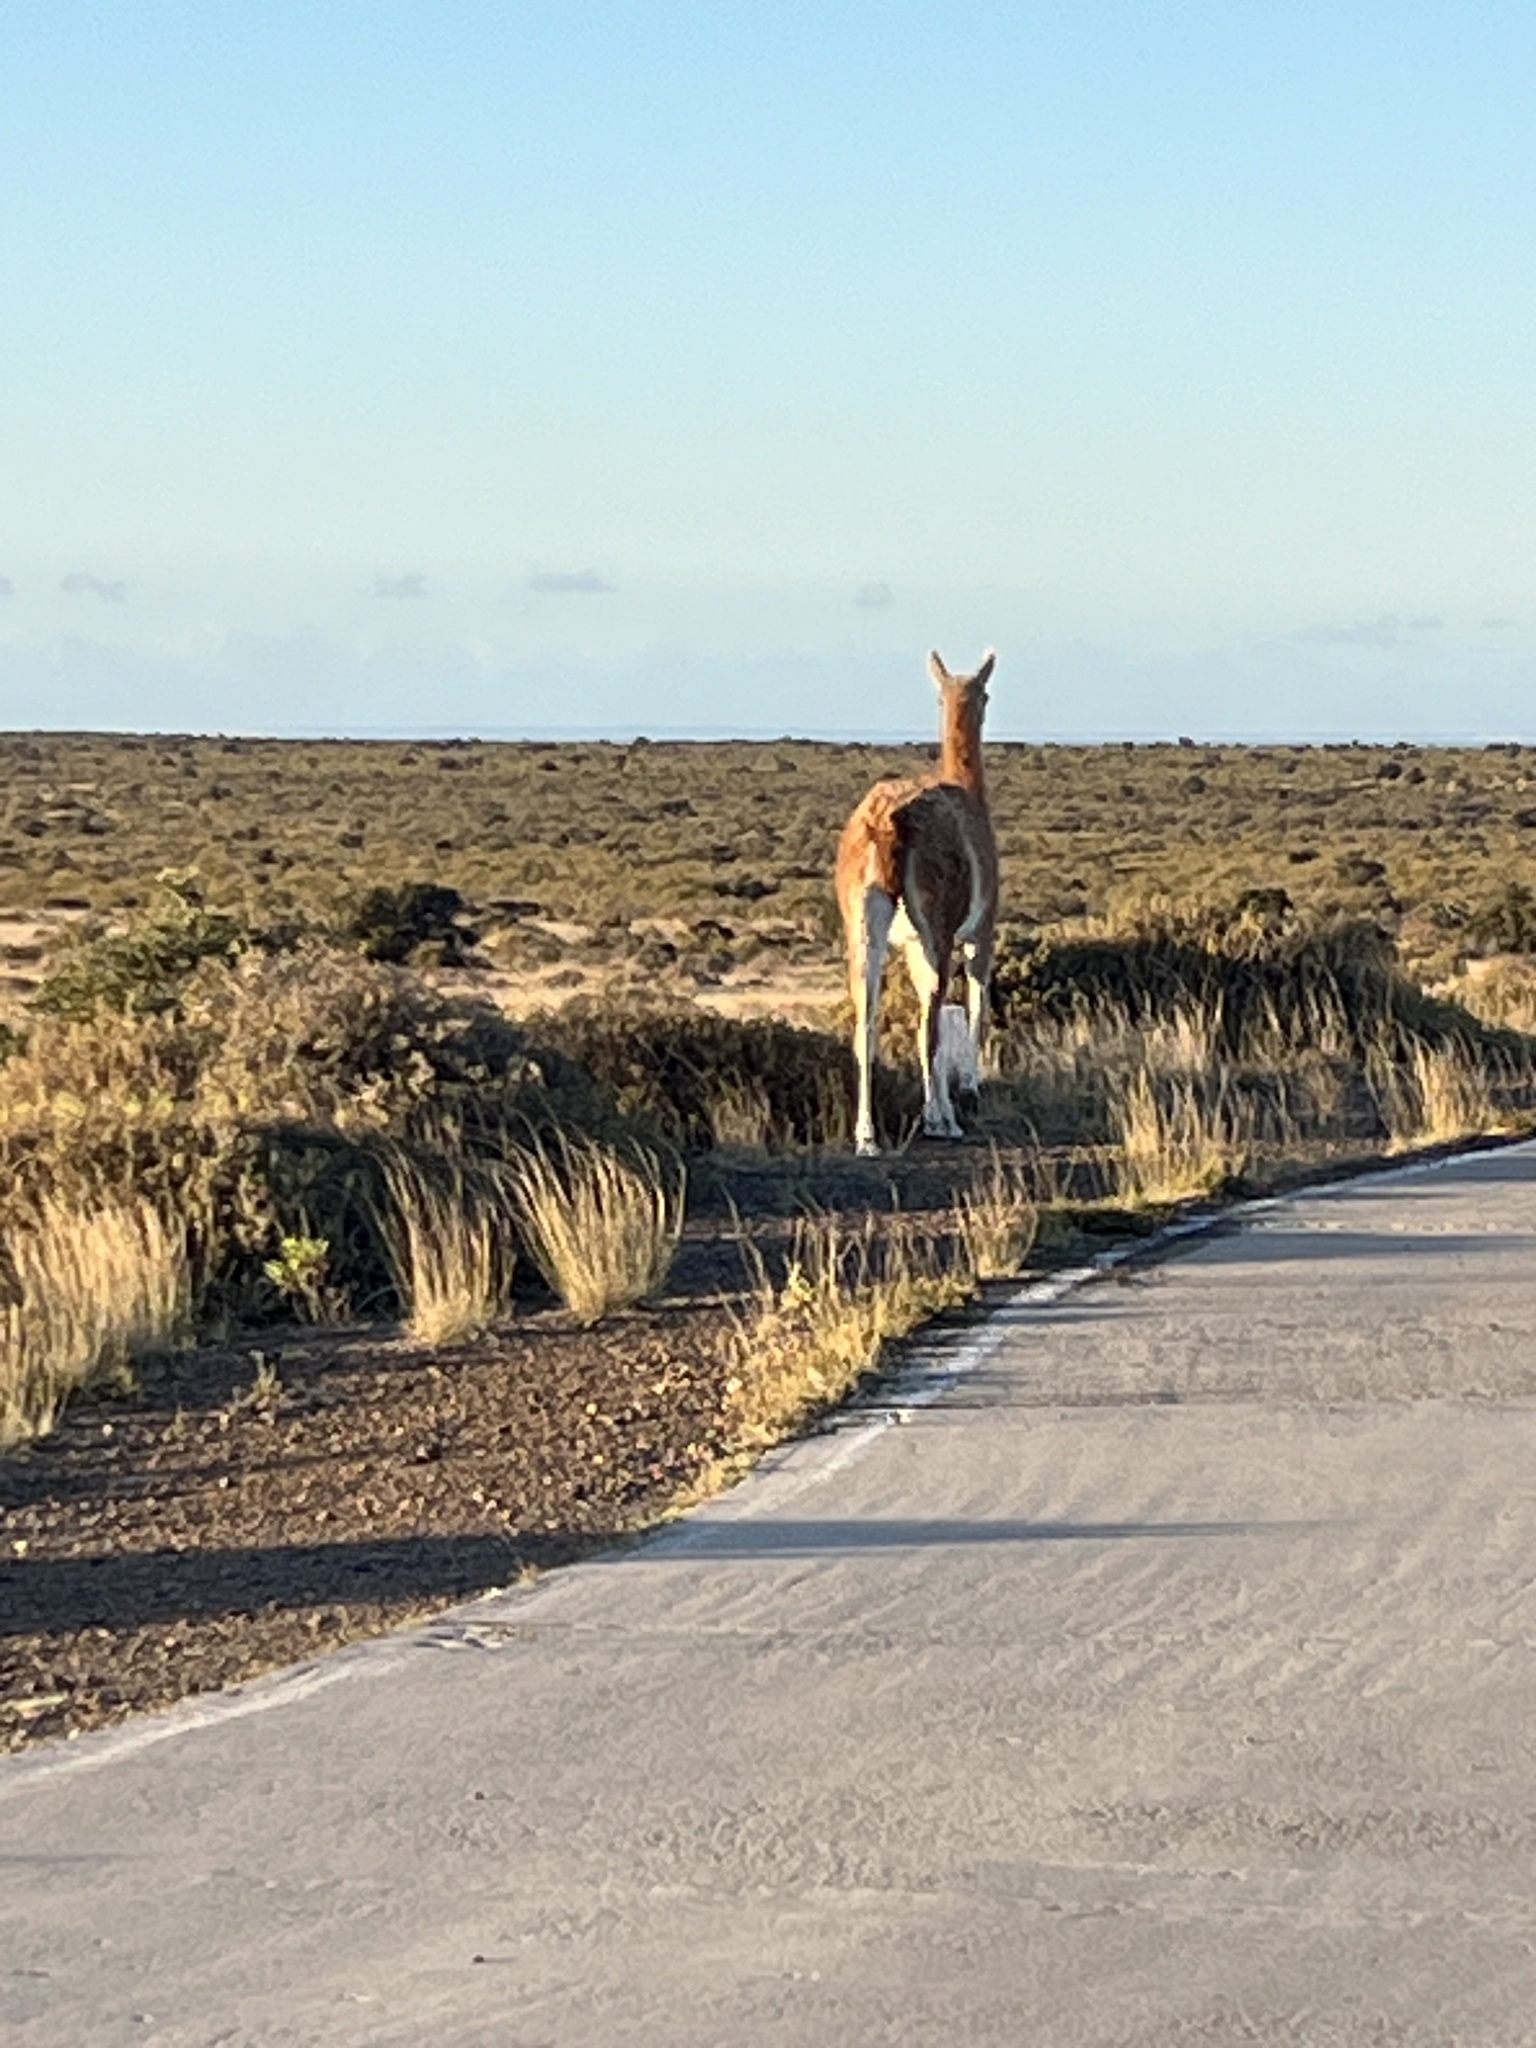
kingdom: Animalia
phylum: Chordata
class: Mammalia
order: Artiodactyla
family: Camelidae
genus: Lama
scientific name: Lama glama
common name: Llama
